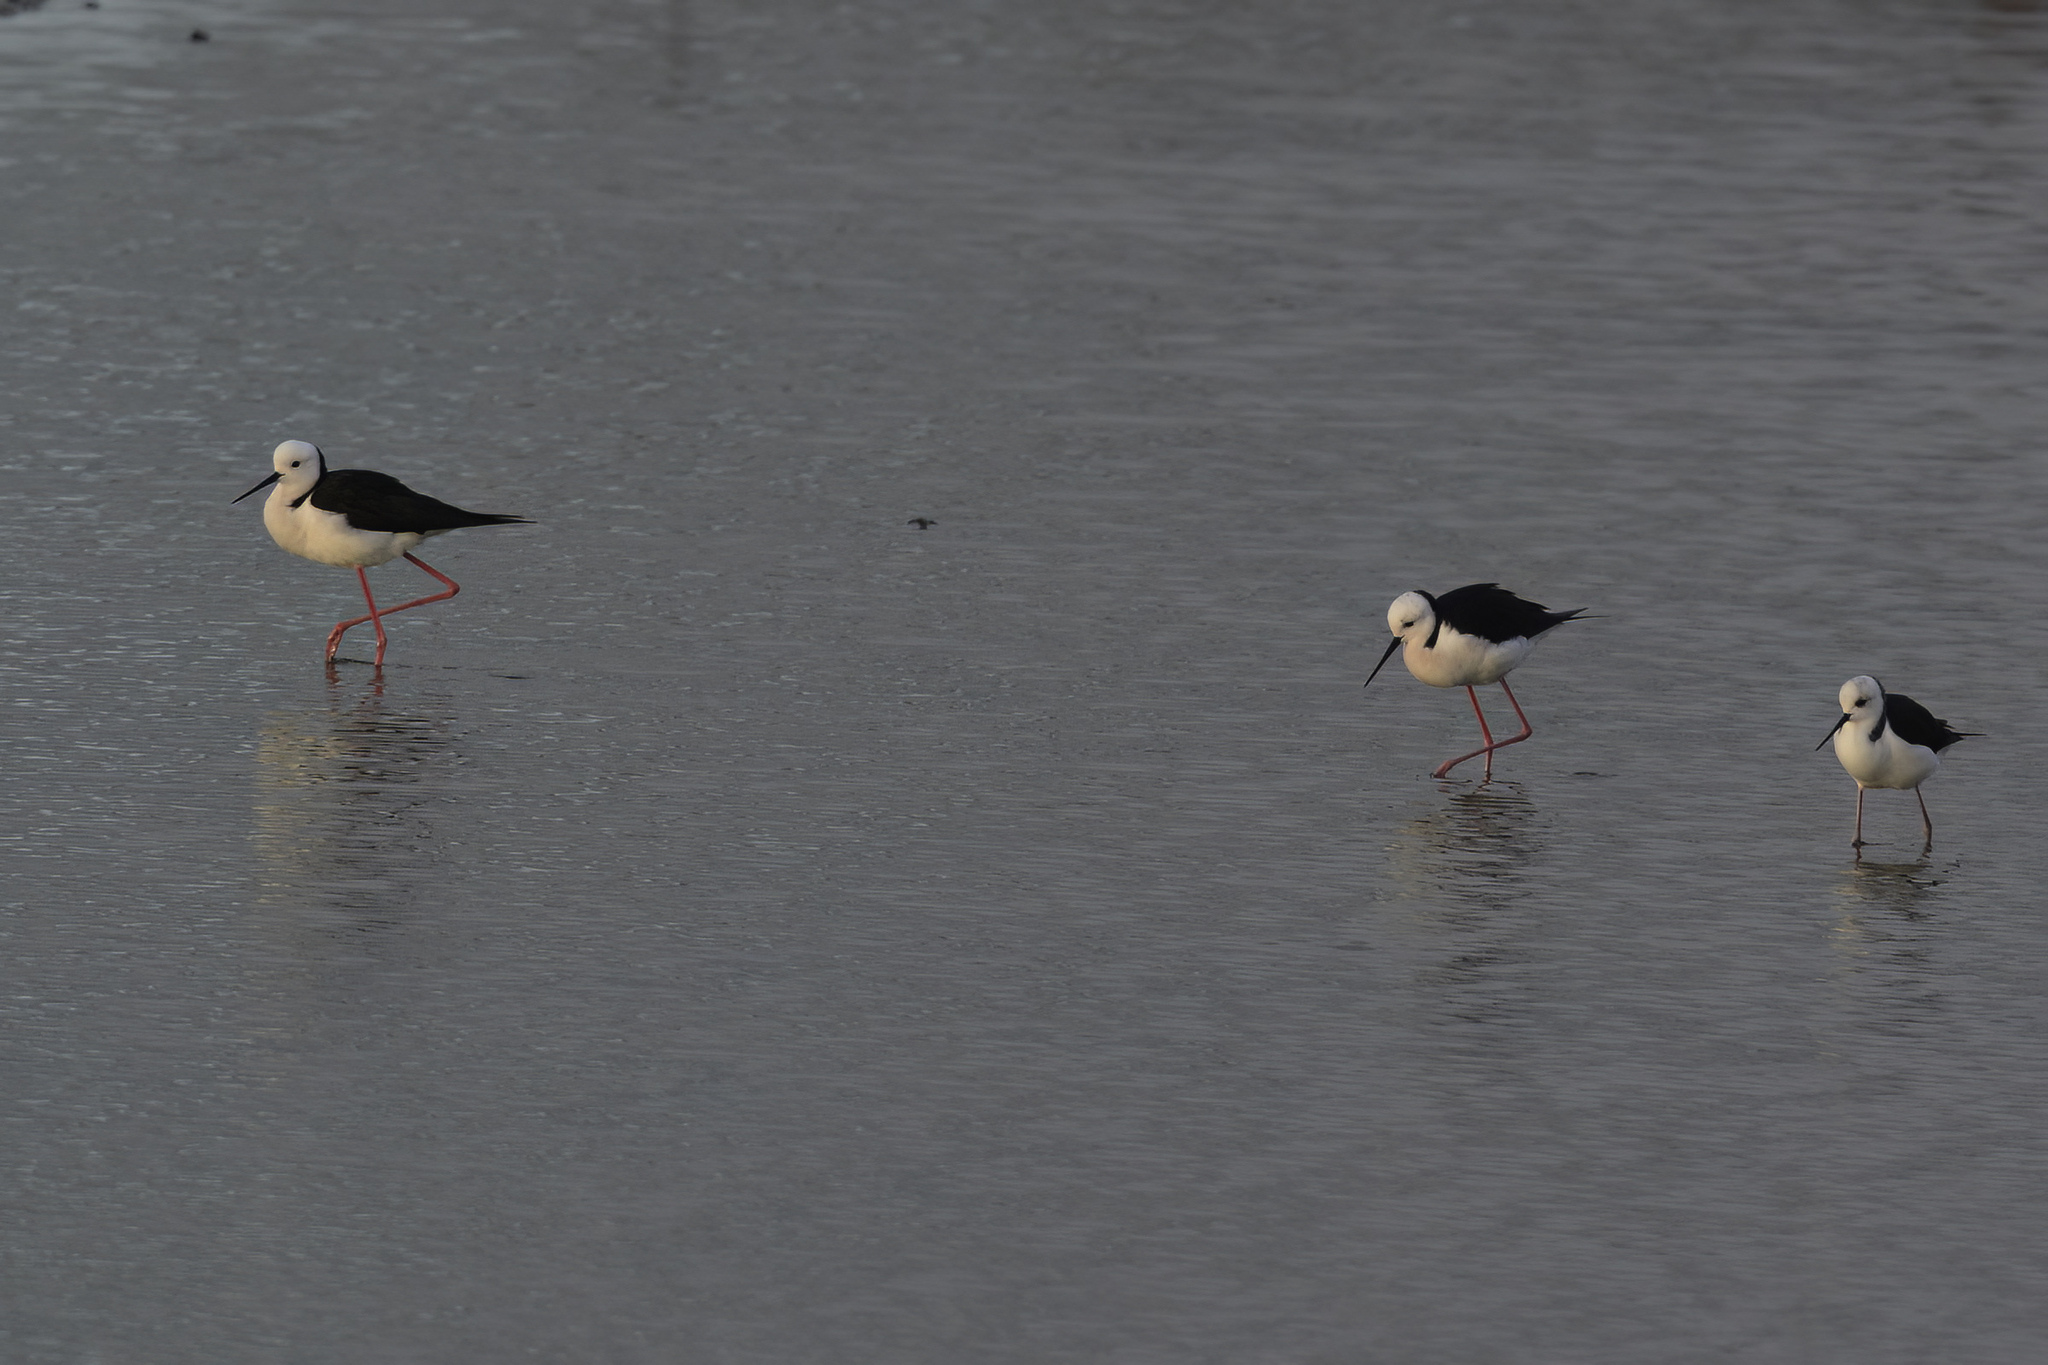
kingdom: Animalia
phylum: Chordata
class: Aves
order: Charadriiformes
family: Recurvirostridae
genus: Himantopus
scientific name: Himantopus leucocephalus
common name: White-headed stilt
